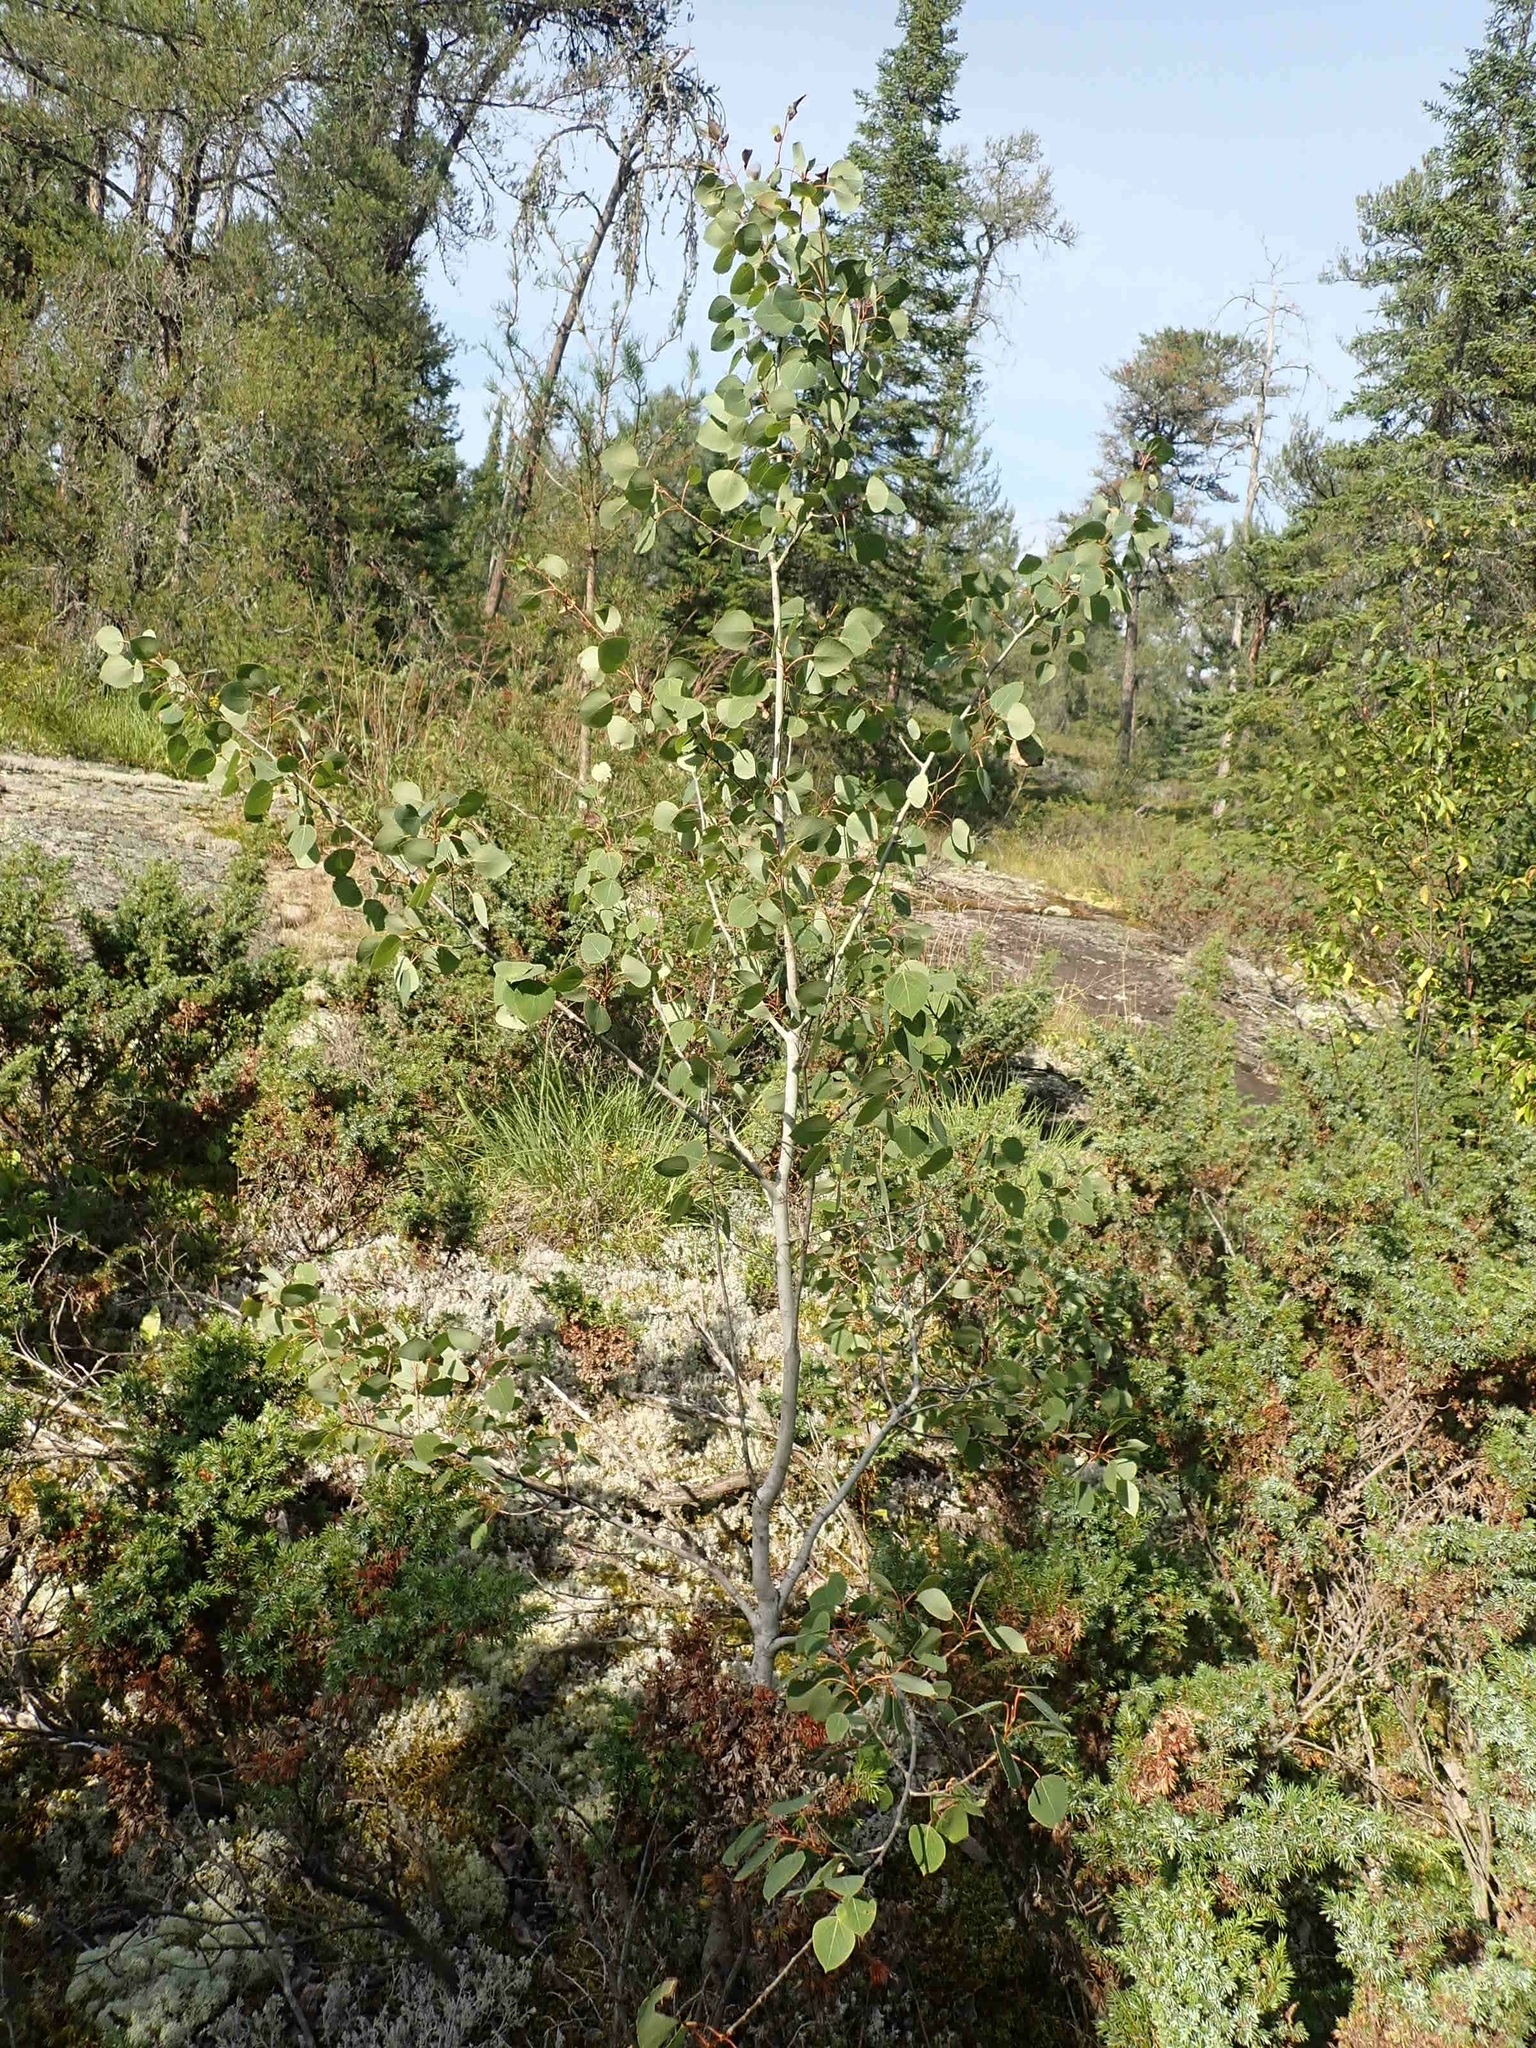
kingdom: Plantae
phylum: Tracheophyta
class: Magnoliopsida
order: Malpighiales
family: Salicaceae
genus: Populus
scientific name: Populus tremuloides
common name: Quaking aspen
